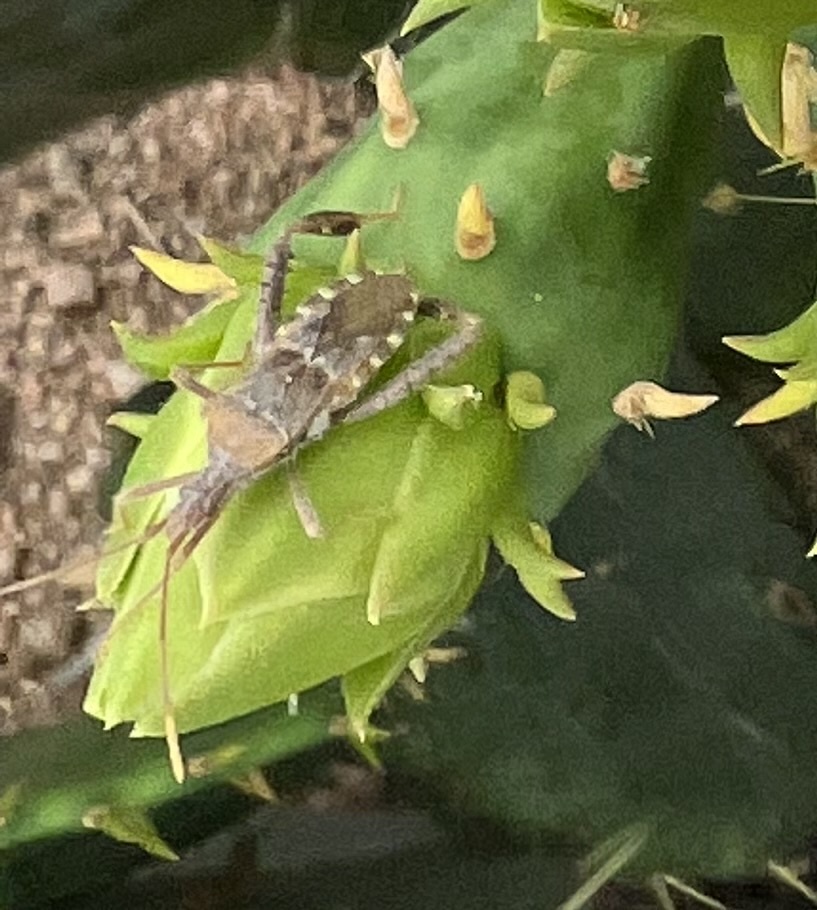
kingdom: Animalia
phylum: Arthropoda
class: Insecta
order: Hemiptera
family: Coreidae
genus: Narnia
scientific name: Narnia femorata
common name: Leaf-footed cactus bug
